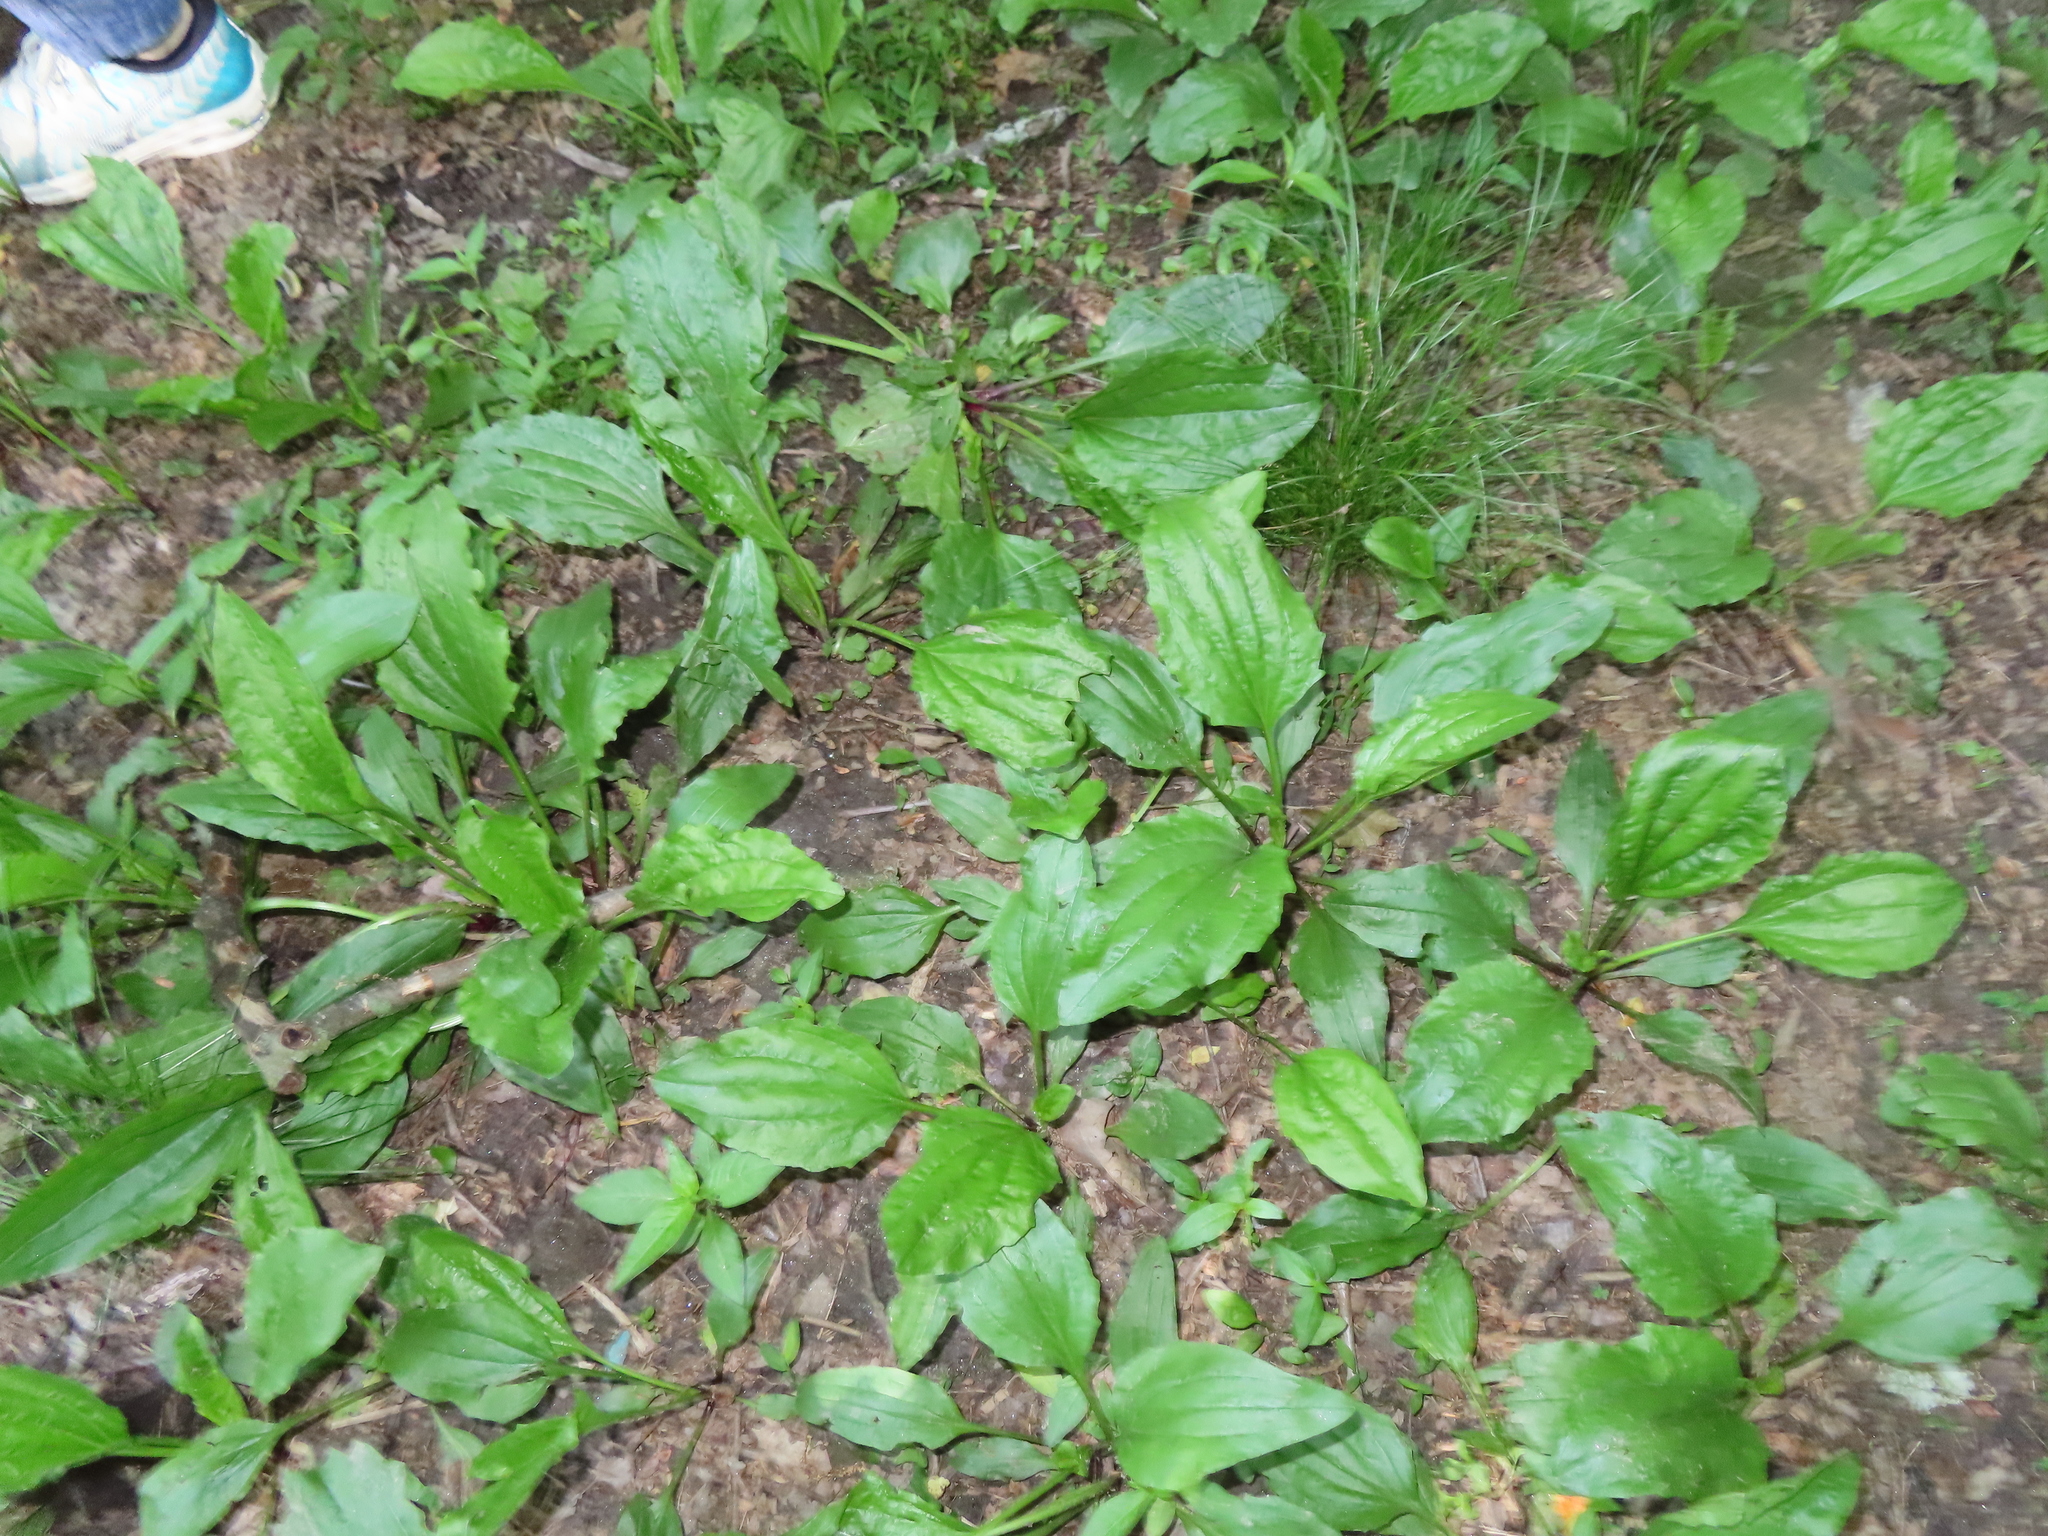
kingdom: Plantae
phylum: Tracheophyta
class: Magnoliopsida
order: Lamiales
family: Plantaginaceae
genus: Plantago
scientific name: Plantago rugelii
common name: American plantain
